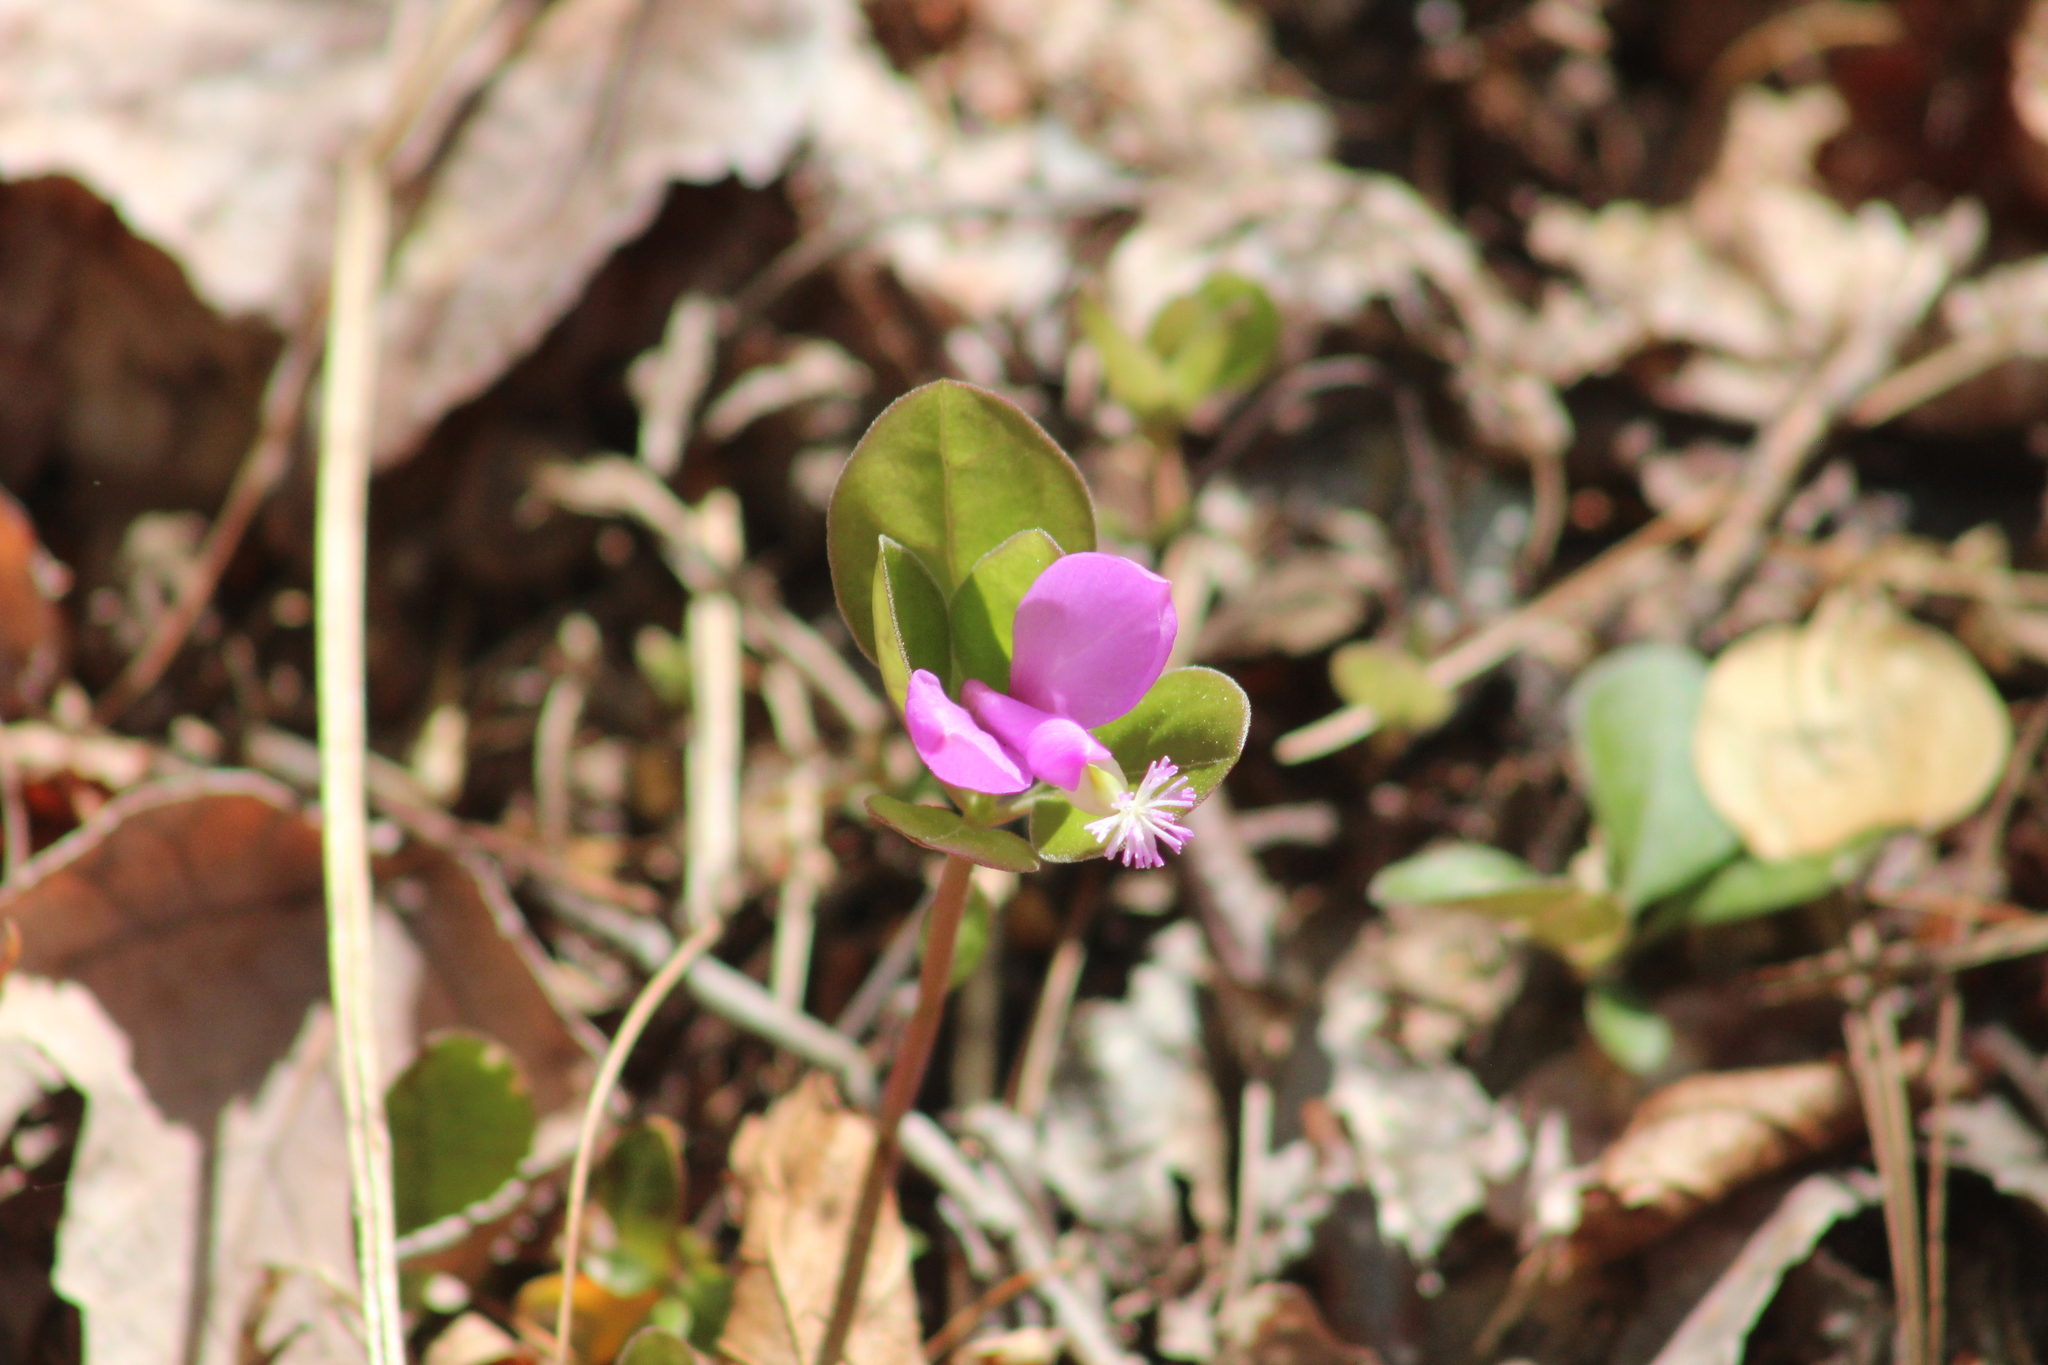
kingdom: Plantae
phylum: Tracheophyta
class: Magnoliopsida
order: Fabales
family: Polygalaceae
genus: Polygaloides
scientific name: Polygaloides paucifolia
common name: Bird-on-the-wing
